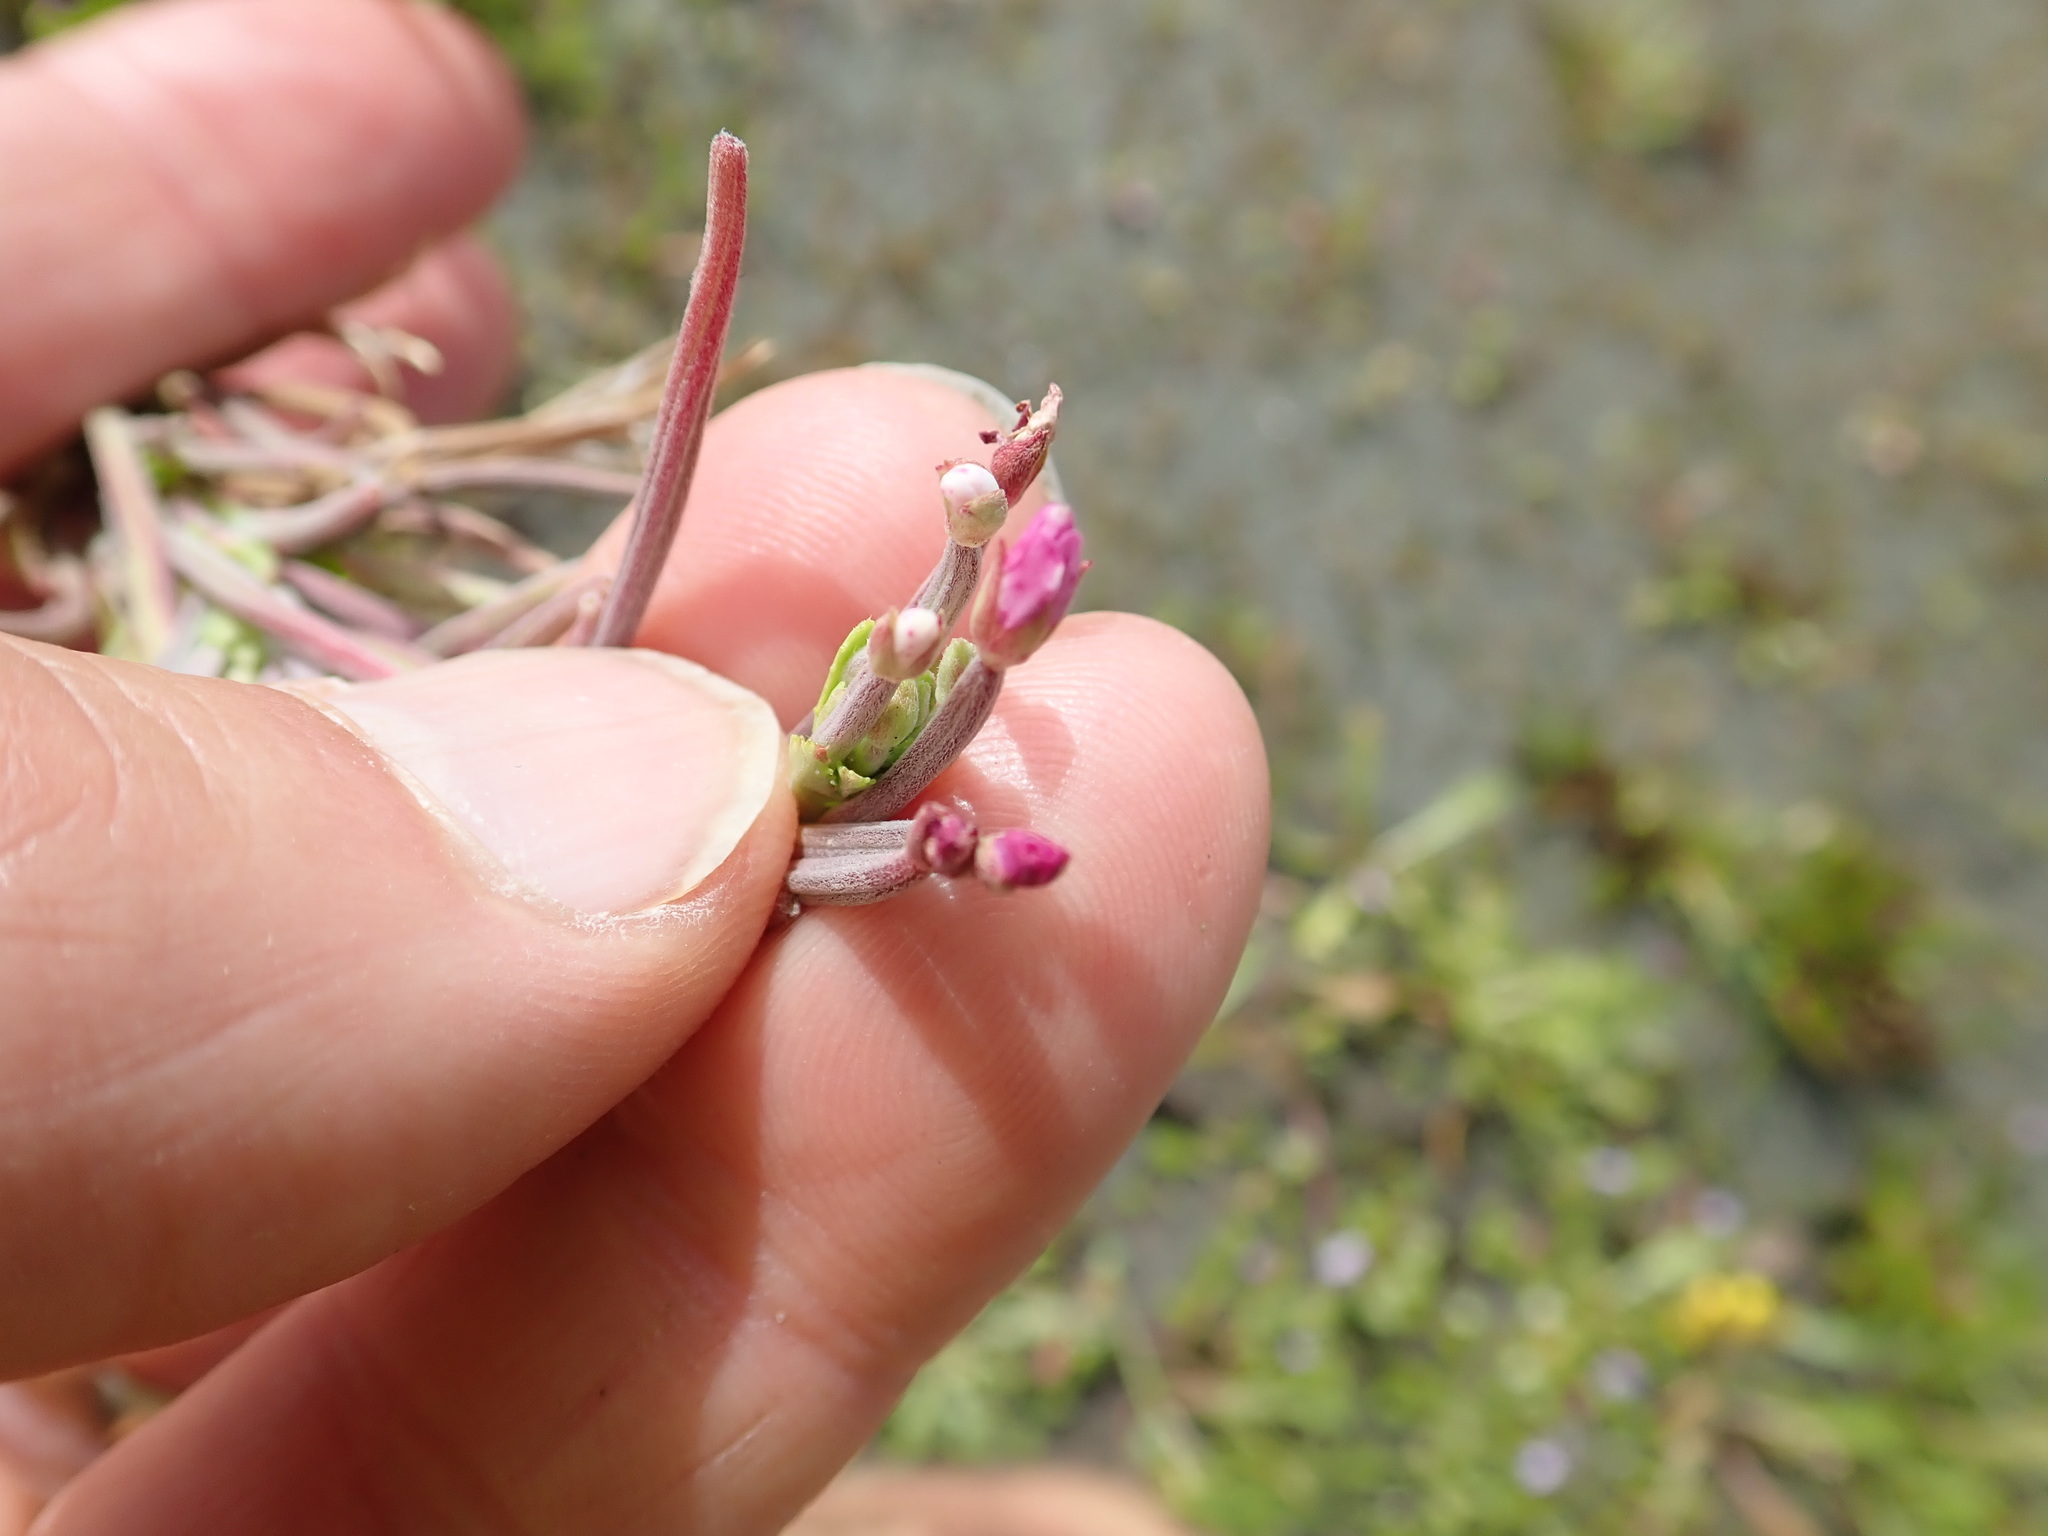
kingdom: Plantae
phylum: Tracheophyta
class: Magnoliopsida
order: Myrtales
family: Onagraceae
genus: Epilobium
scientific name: Epilobium billardierianum
